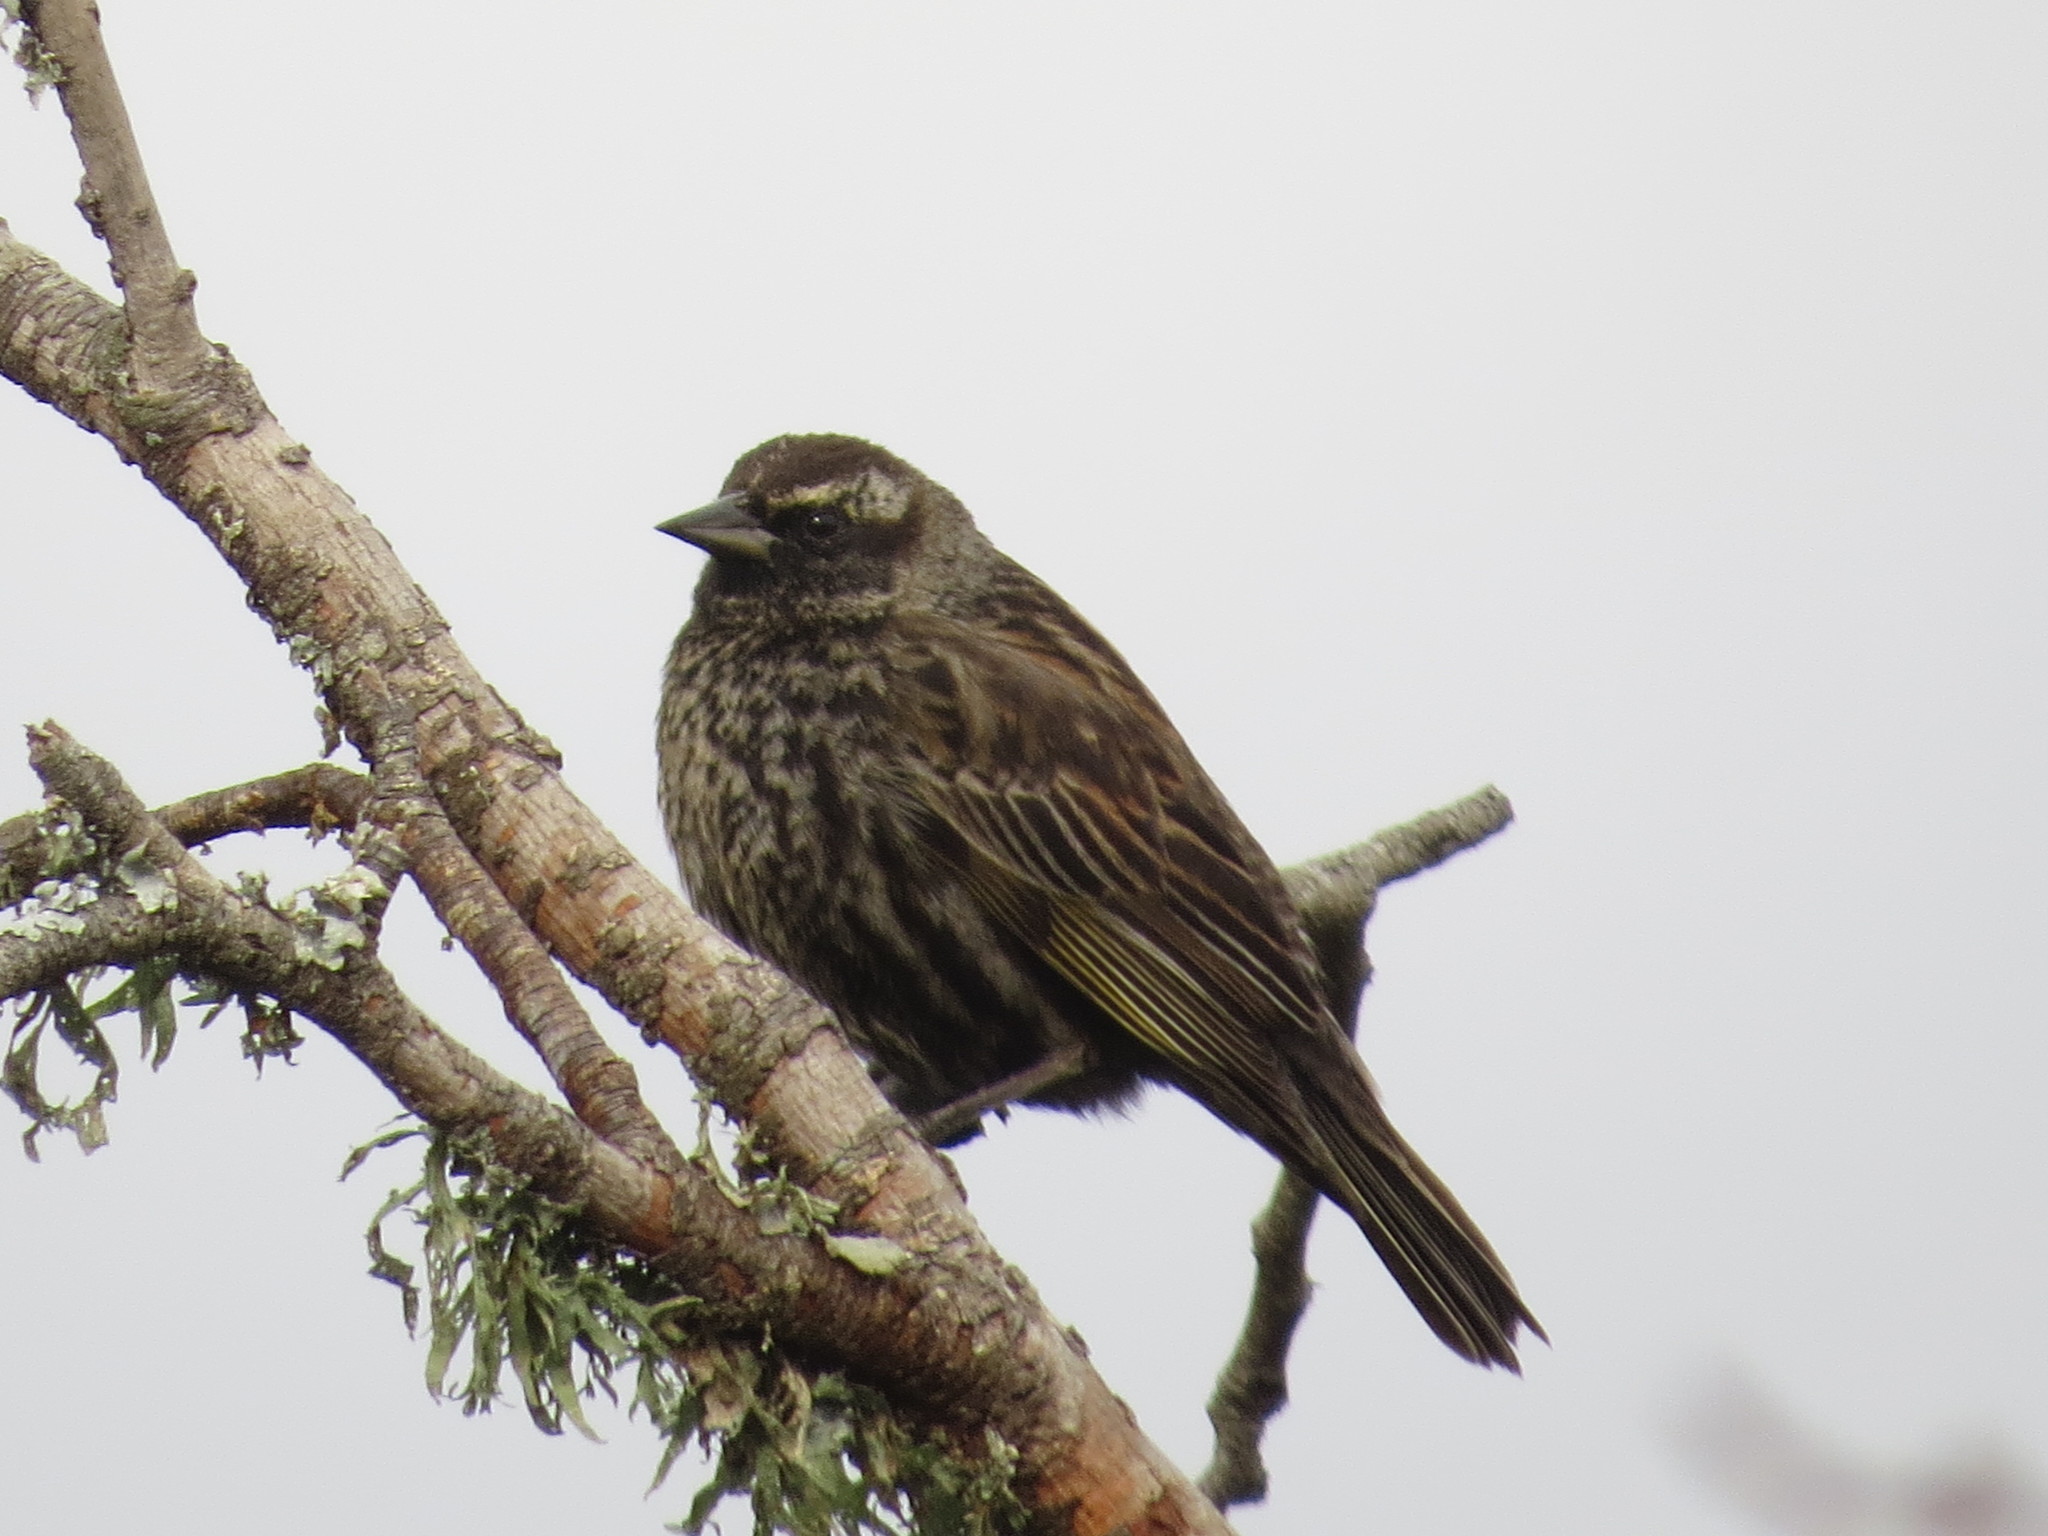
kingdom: Animalia
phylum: Chordata
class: Aves
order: Passeriformes
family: Icteridae
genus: Agelasticus
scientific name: Agelasticus thilius
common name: Yellow-winged blackbird
